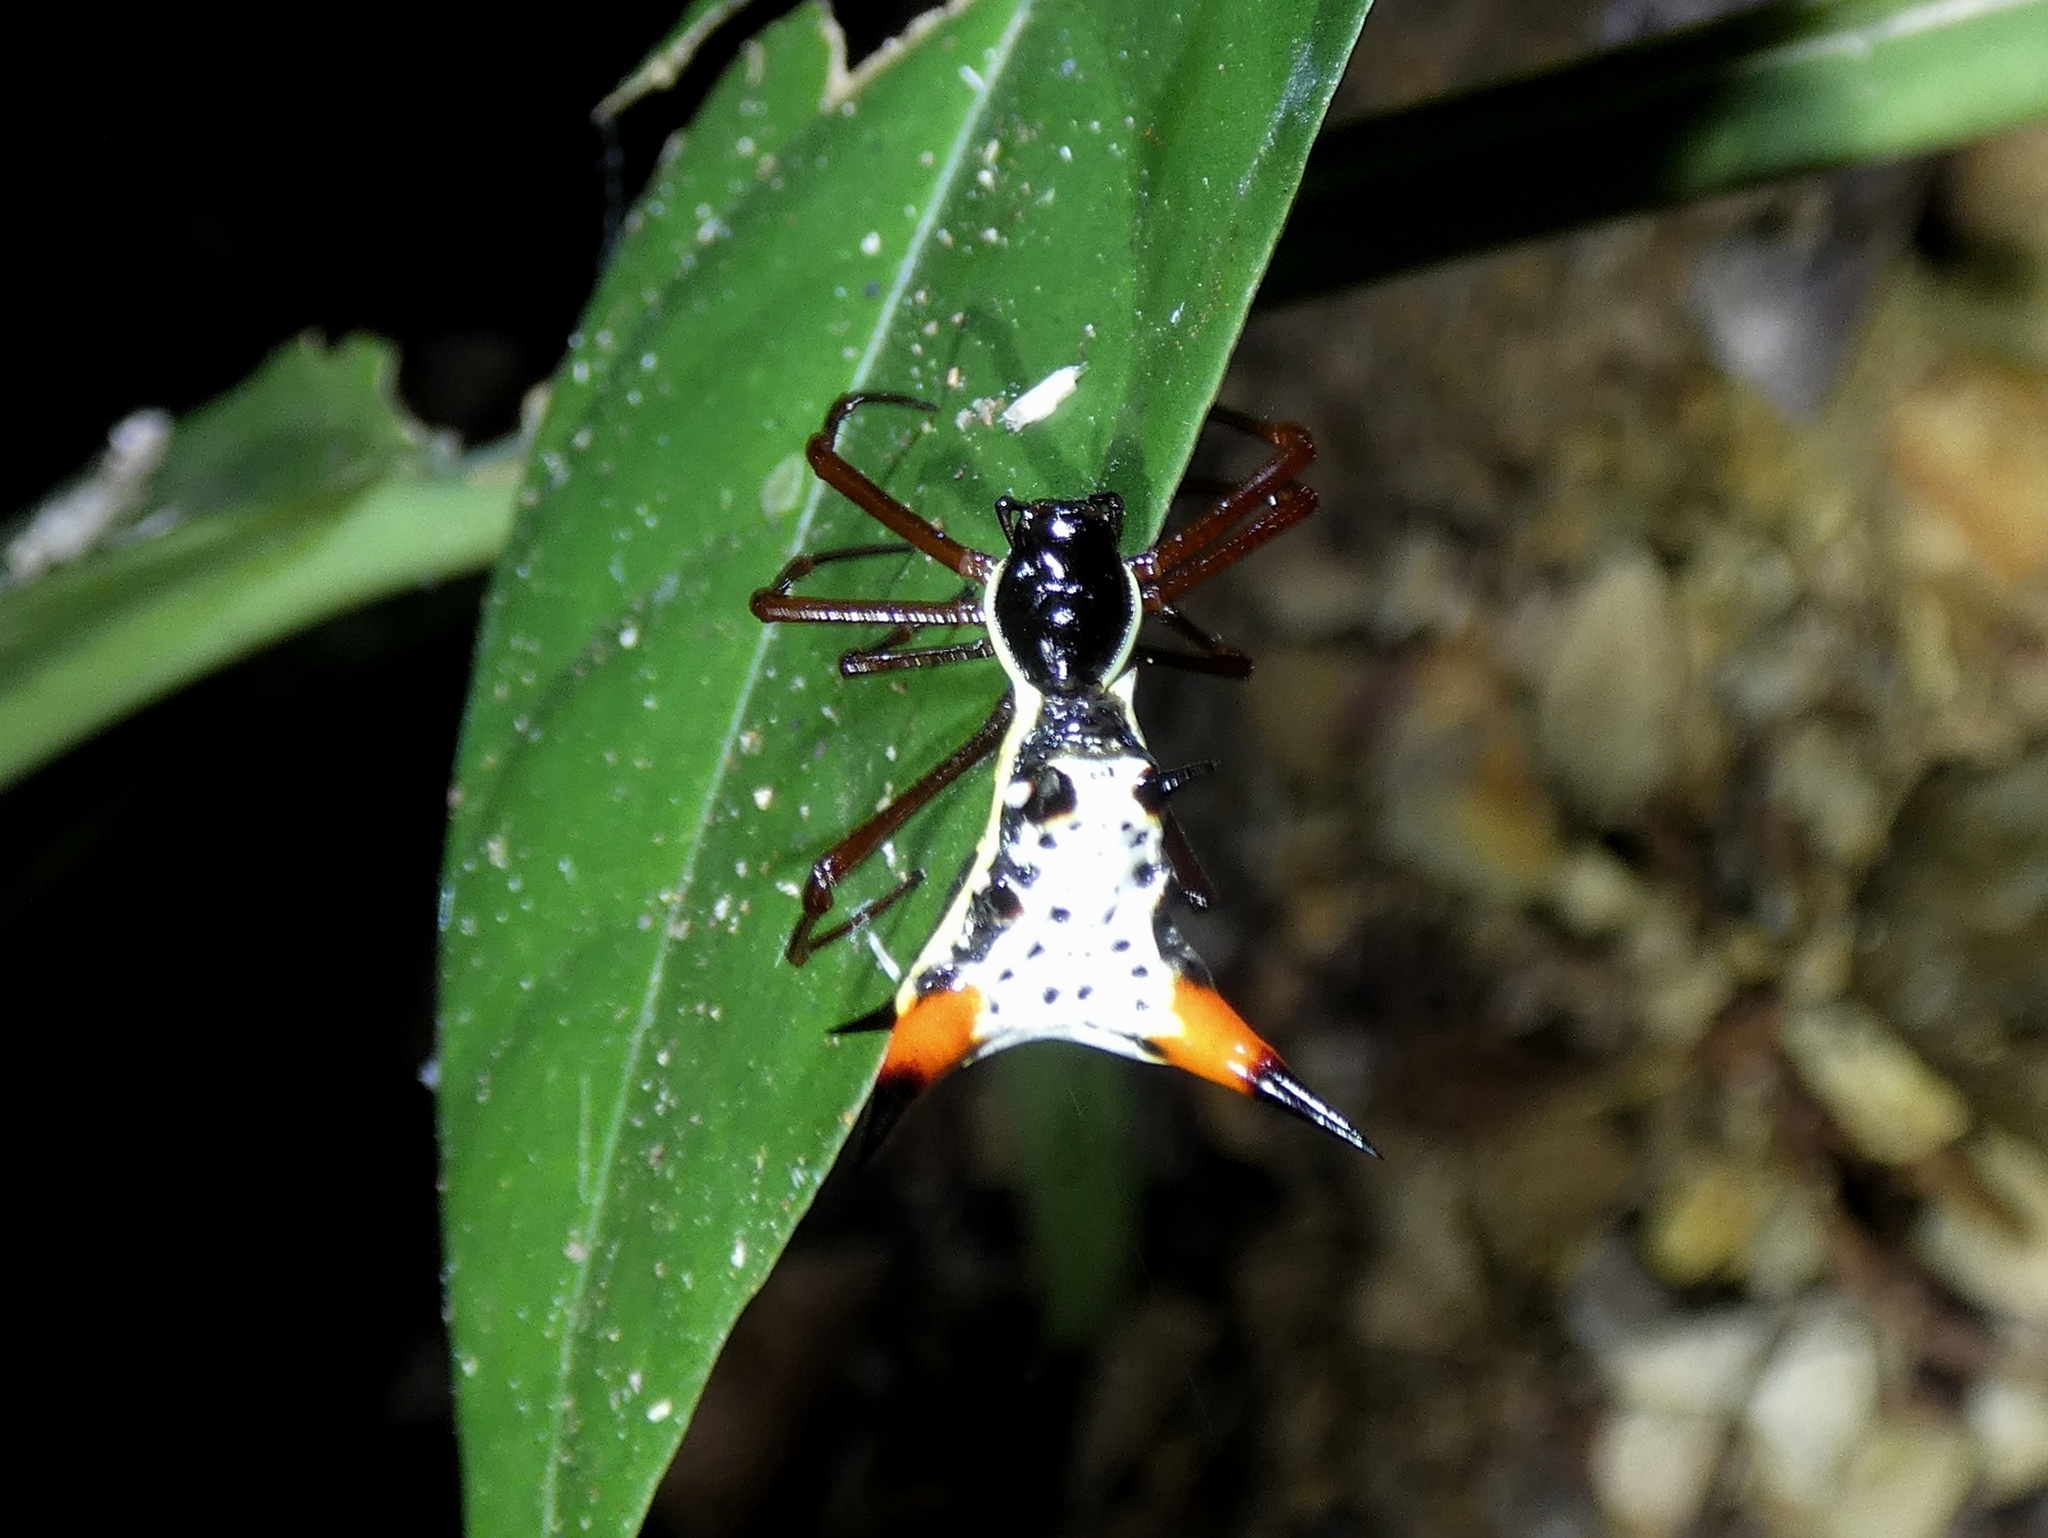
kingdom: Animalia
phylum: Arthropoda
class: Arachnida
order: Araneae
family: Araneidae
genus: Micrathena
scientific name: Micrathena schreibersi
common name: Orb weavers
